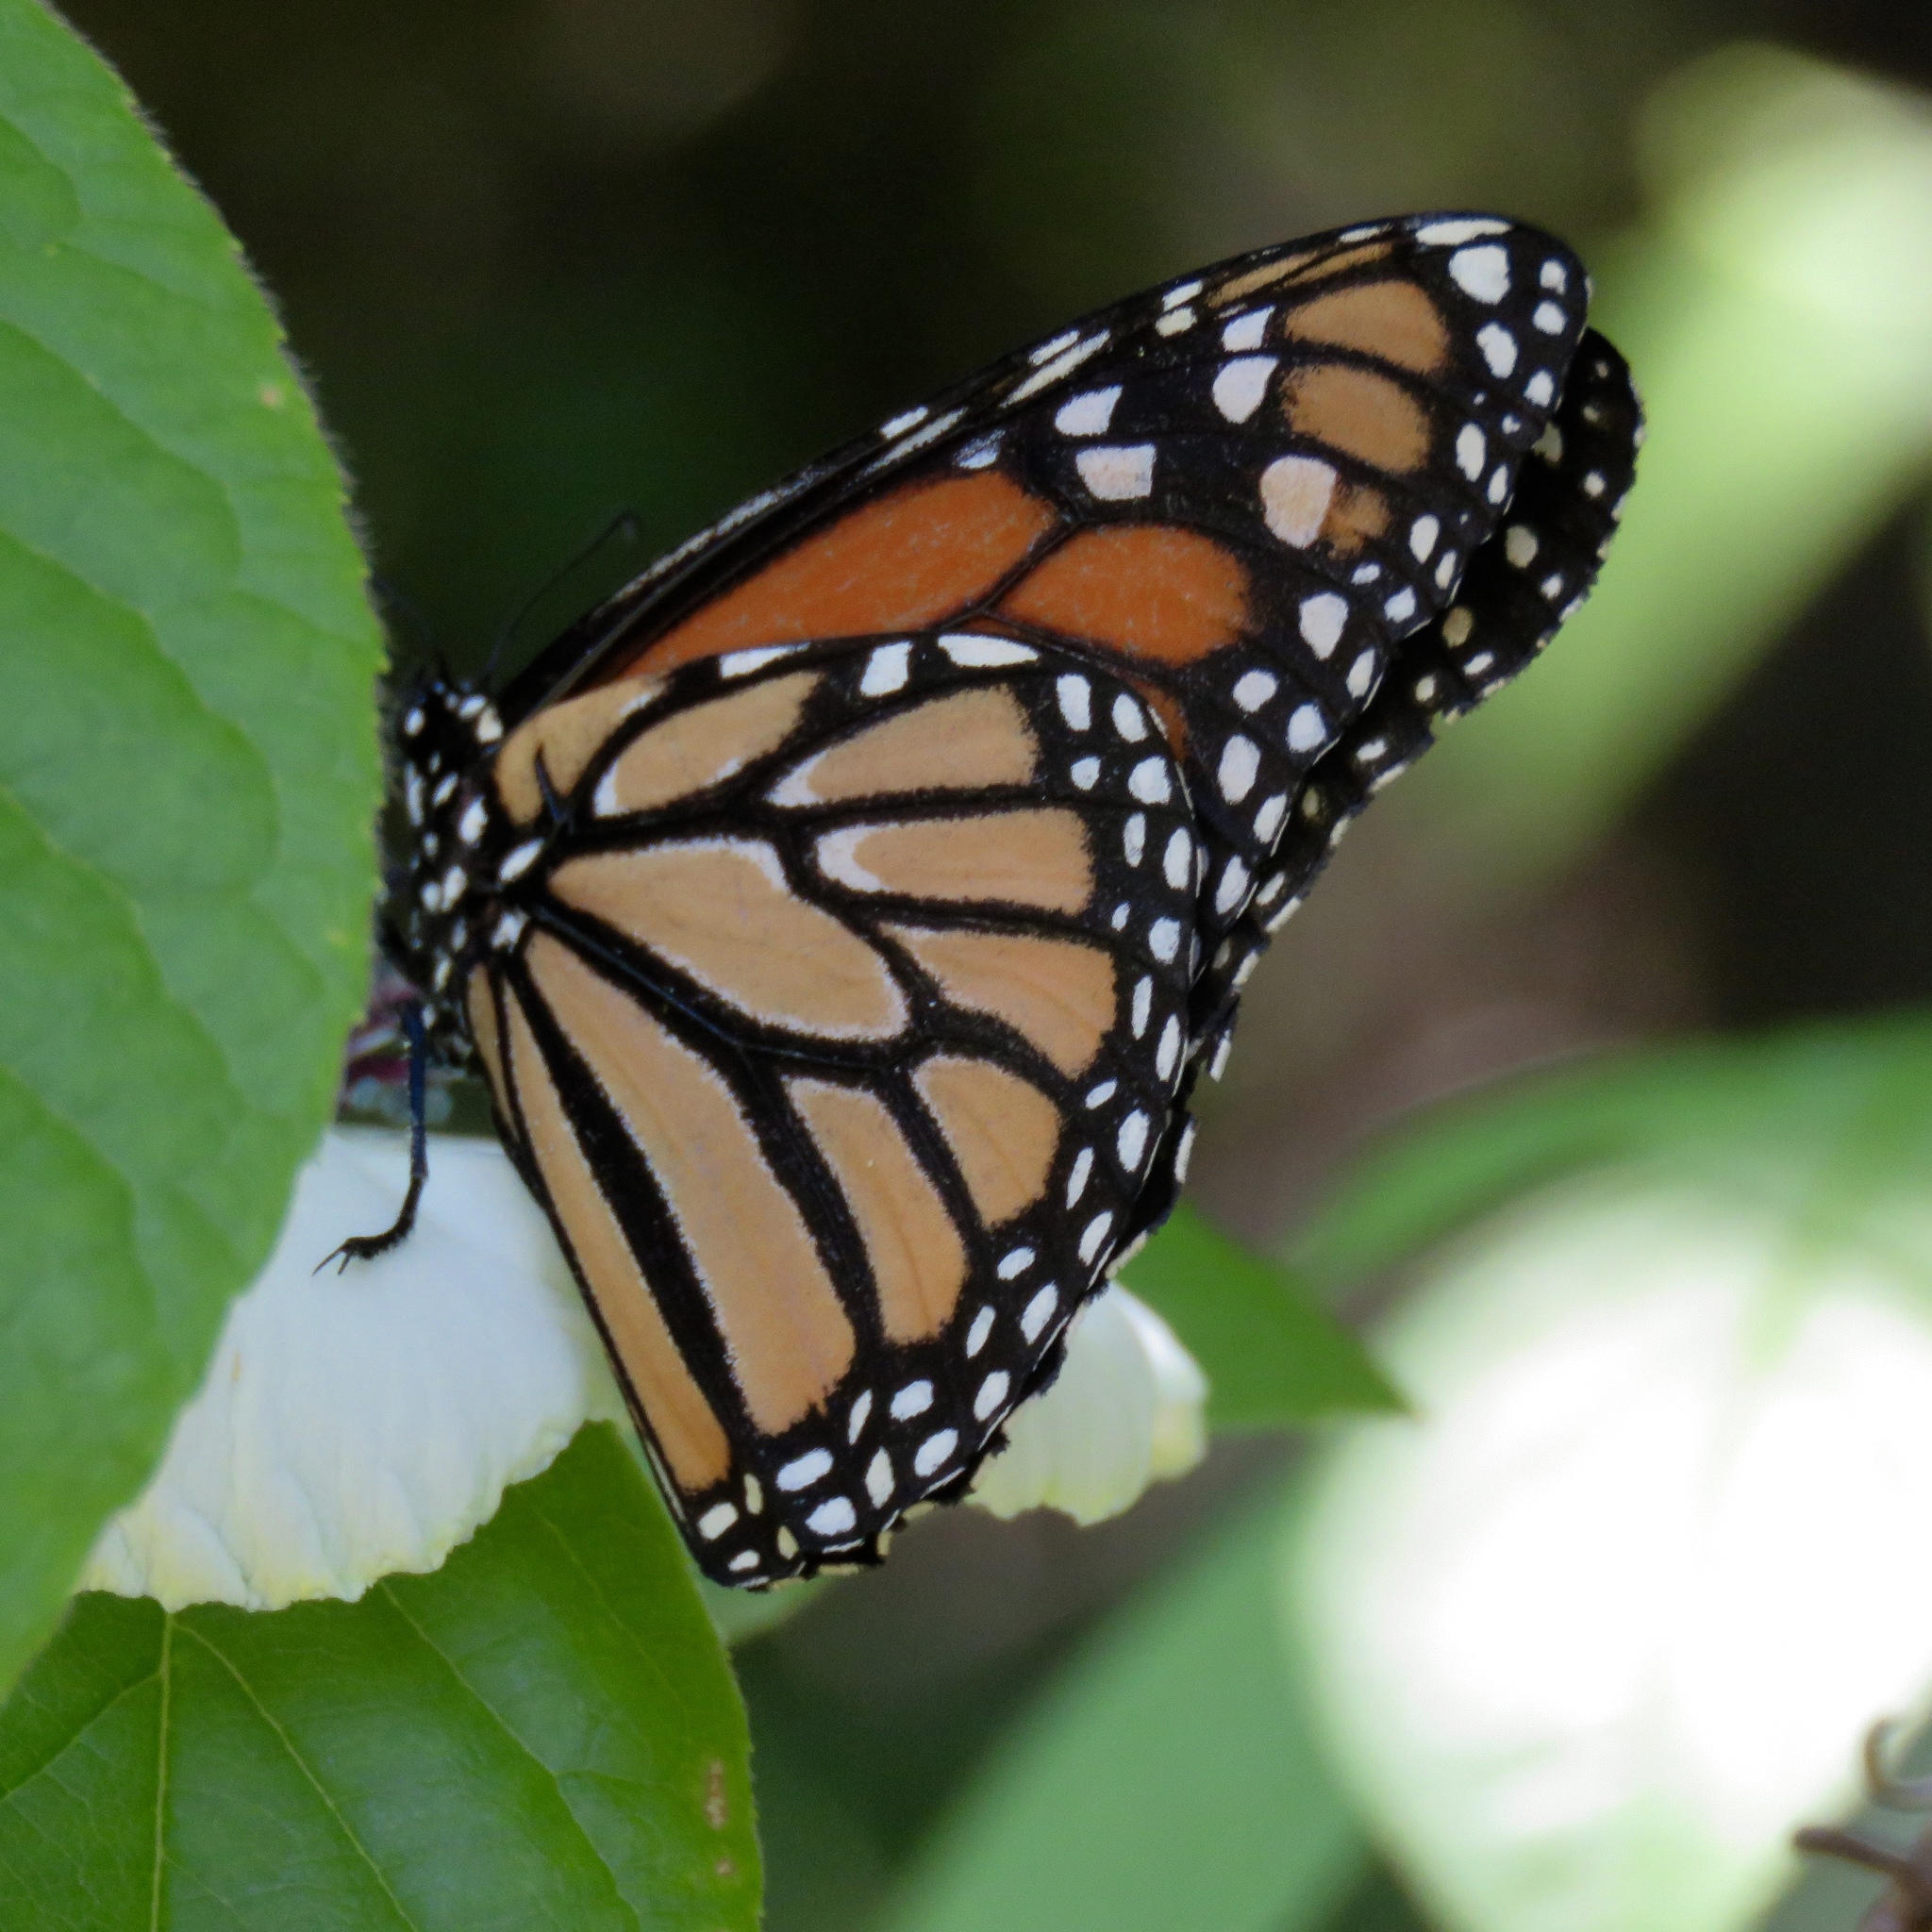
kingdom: Animalia
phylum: Arthropoda
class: Insecta
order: Lepidoptera
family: Nymphalidae
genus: Danaus
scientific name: Danaus plexippus
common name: Monarch
